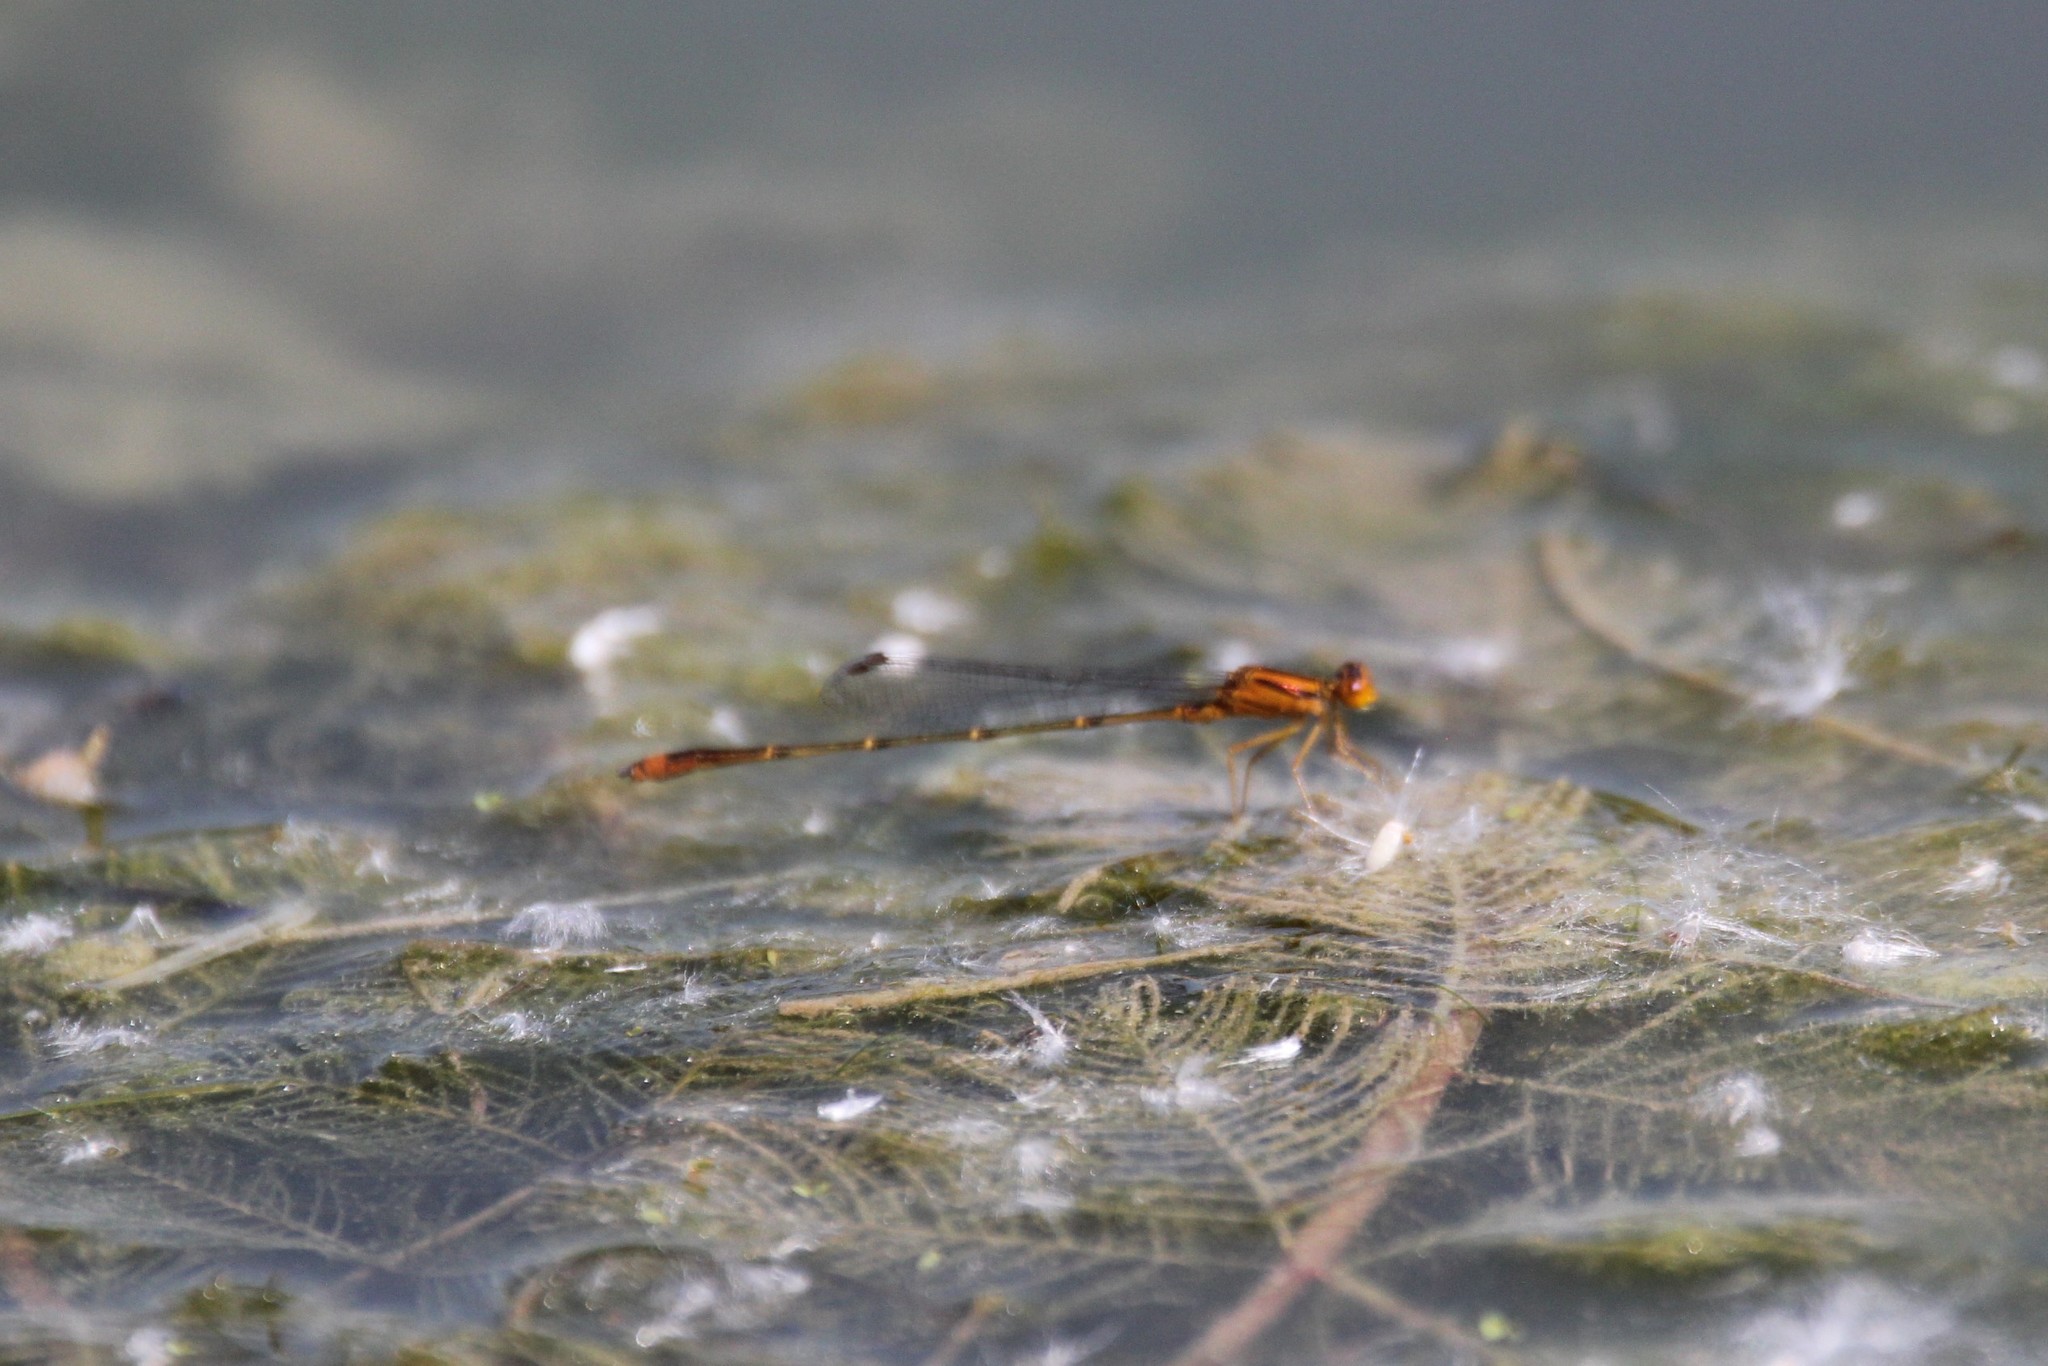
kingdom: Animalia
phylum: Arthropoda
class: Insecta
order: Odonata
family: Coenagrionidae
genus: Enallagma
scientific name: Enallagma signatum
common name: Orange bluet
